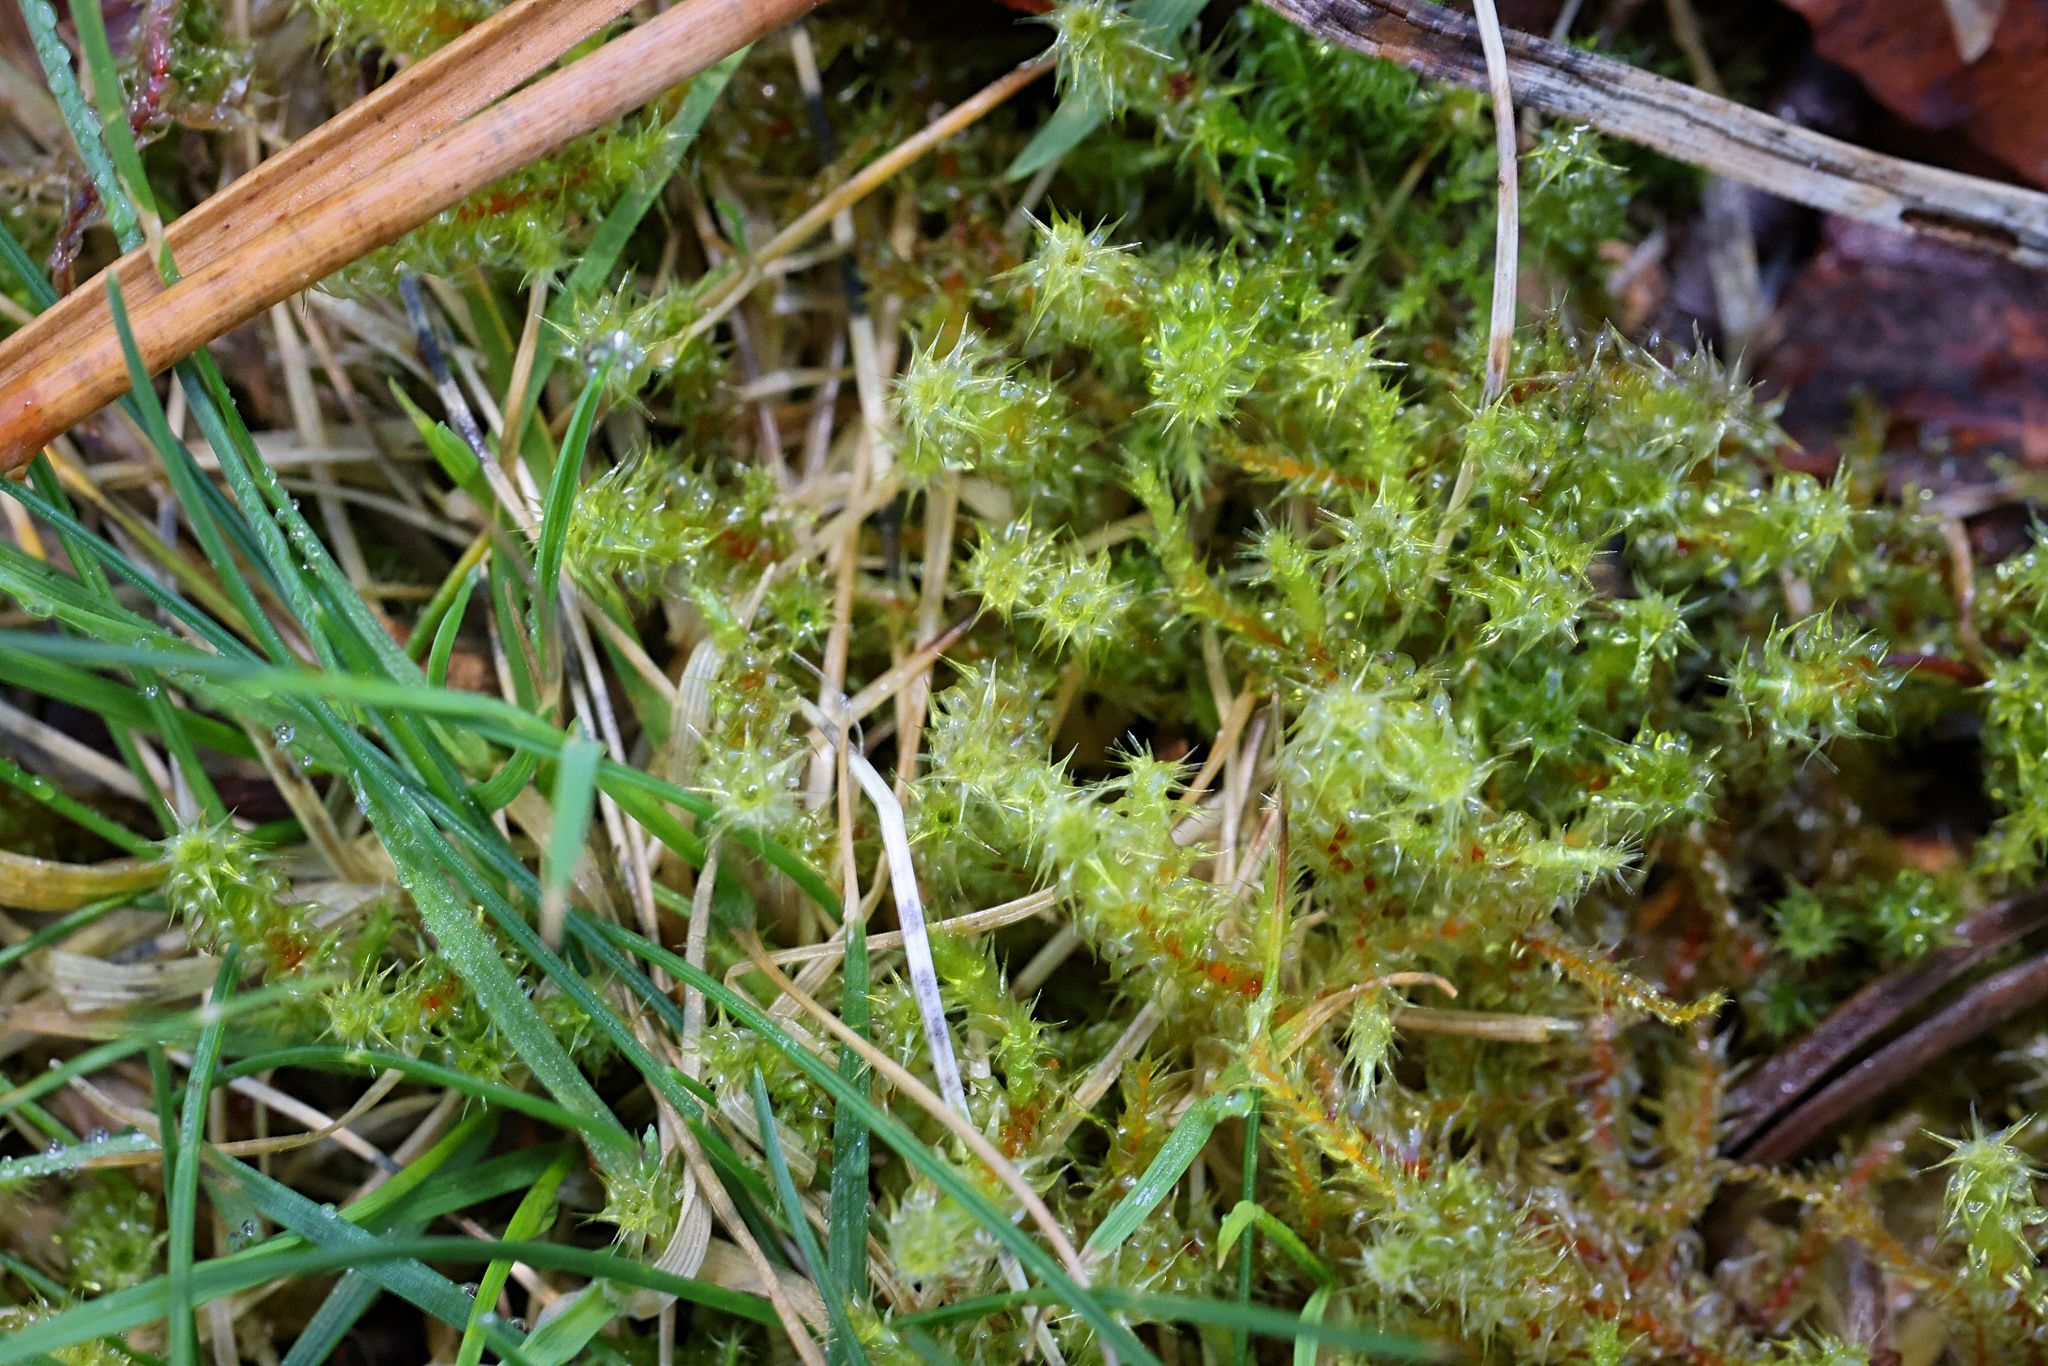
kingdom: Plantae
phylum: Bryophyta
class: Bryopsida
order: Hypnales
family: Hylocomiaceae
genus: Rhytidiadelphus
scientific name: Rhytidiadelphus squarrosus
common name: Springy turf-moss
